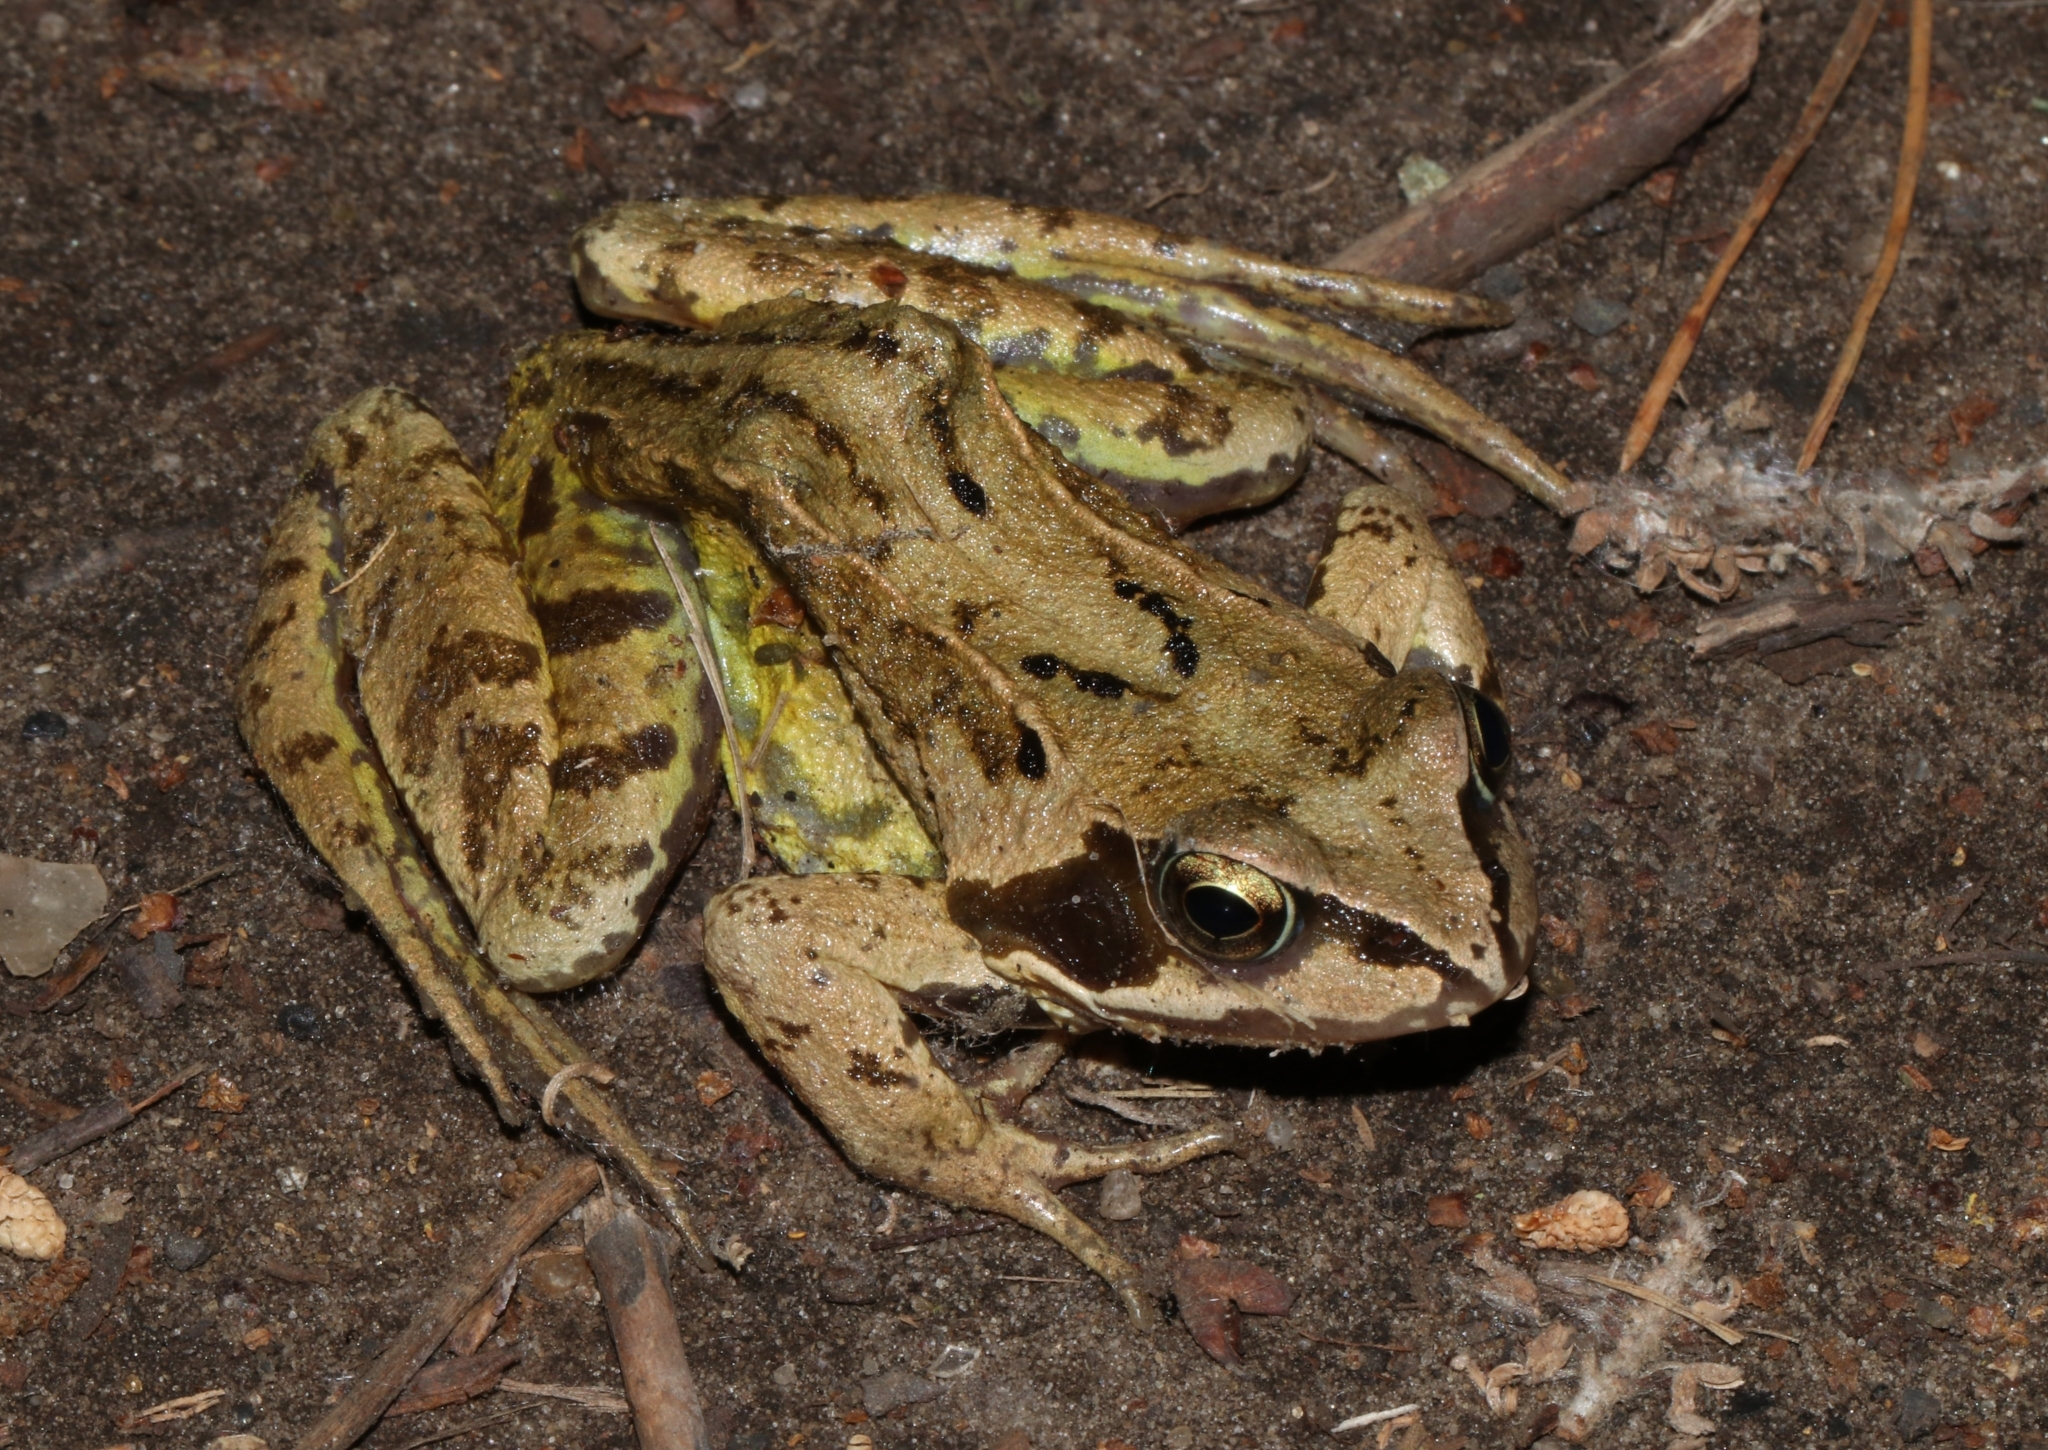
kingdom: Animalia
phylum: Chordata
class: Amphibia
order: Anura
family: Ranidae
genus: Rana
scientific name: Rana temporaria
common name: Common frog
